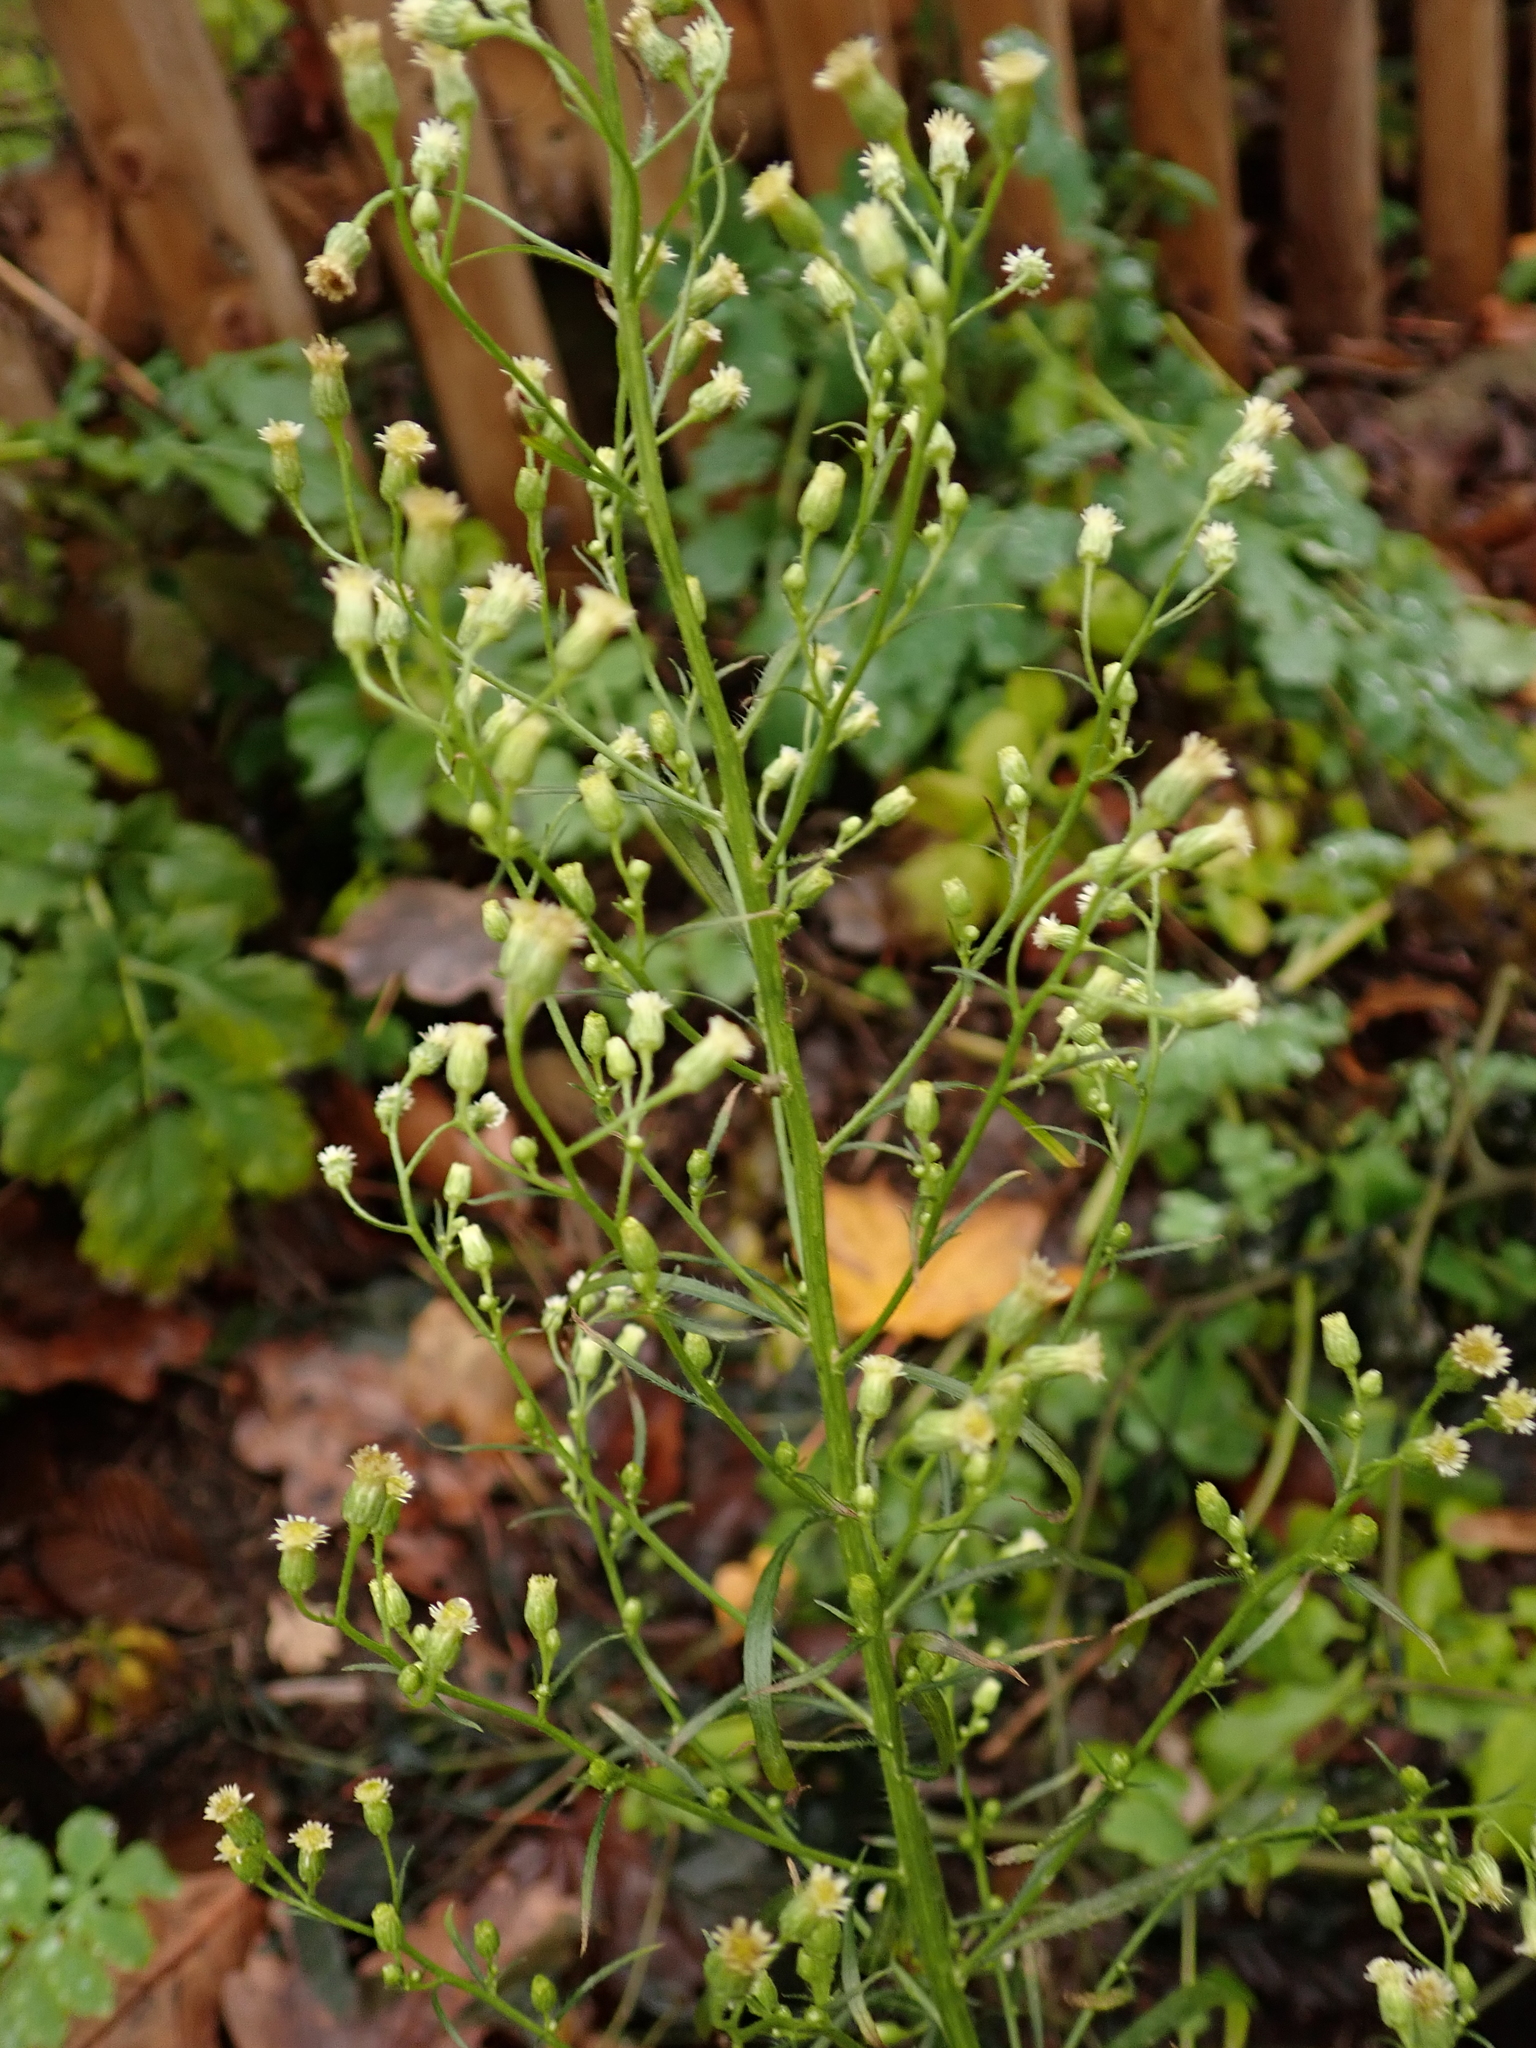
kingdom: Plantae
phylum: Tracheophyta
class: Magnoliopsida
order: Asterales
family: Asteraceae
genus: Erigeron
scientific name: Erigeron canadensis
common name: Canadian fleabane
